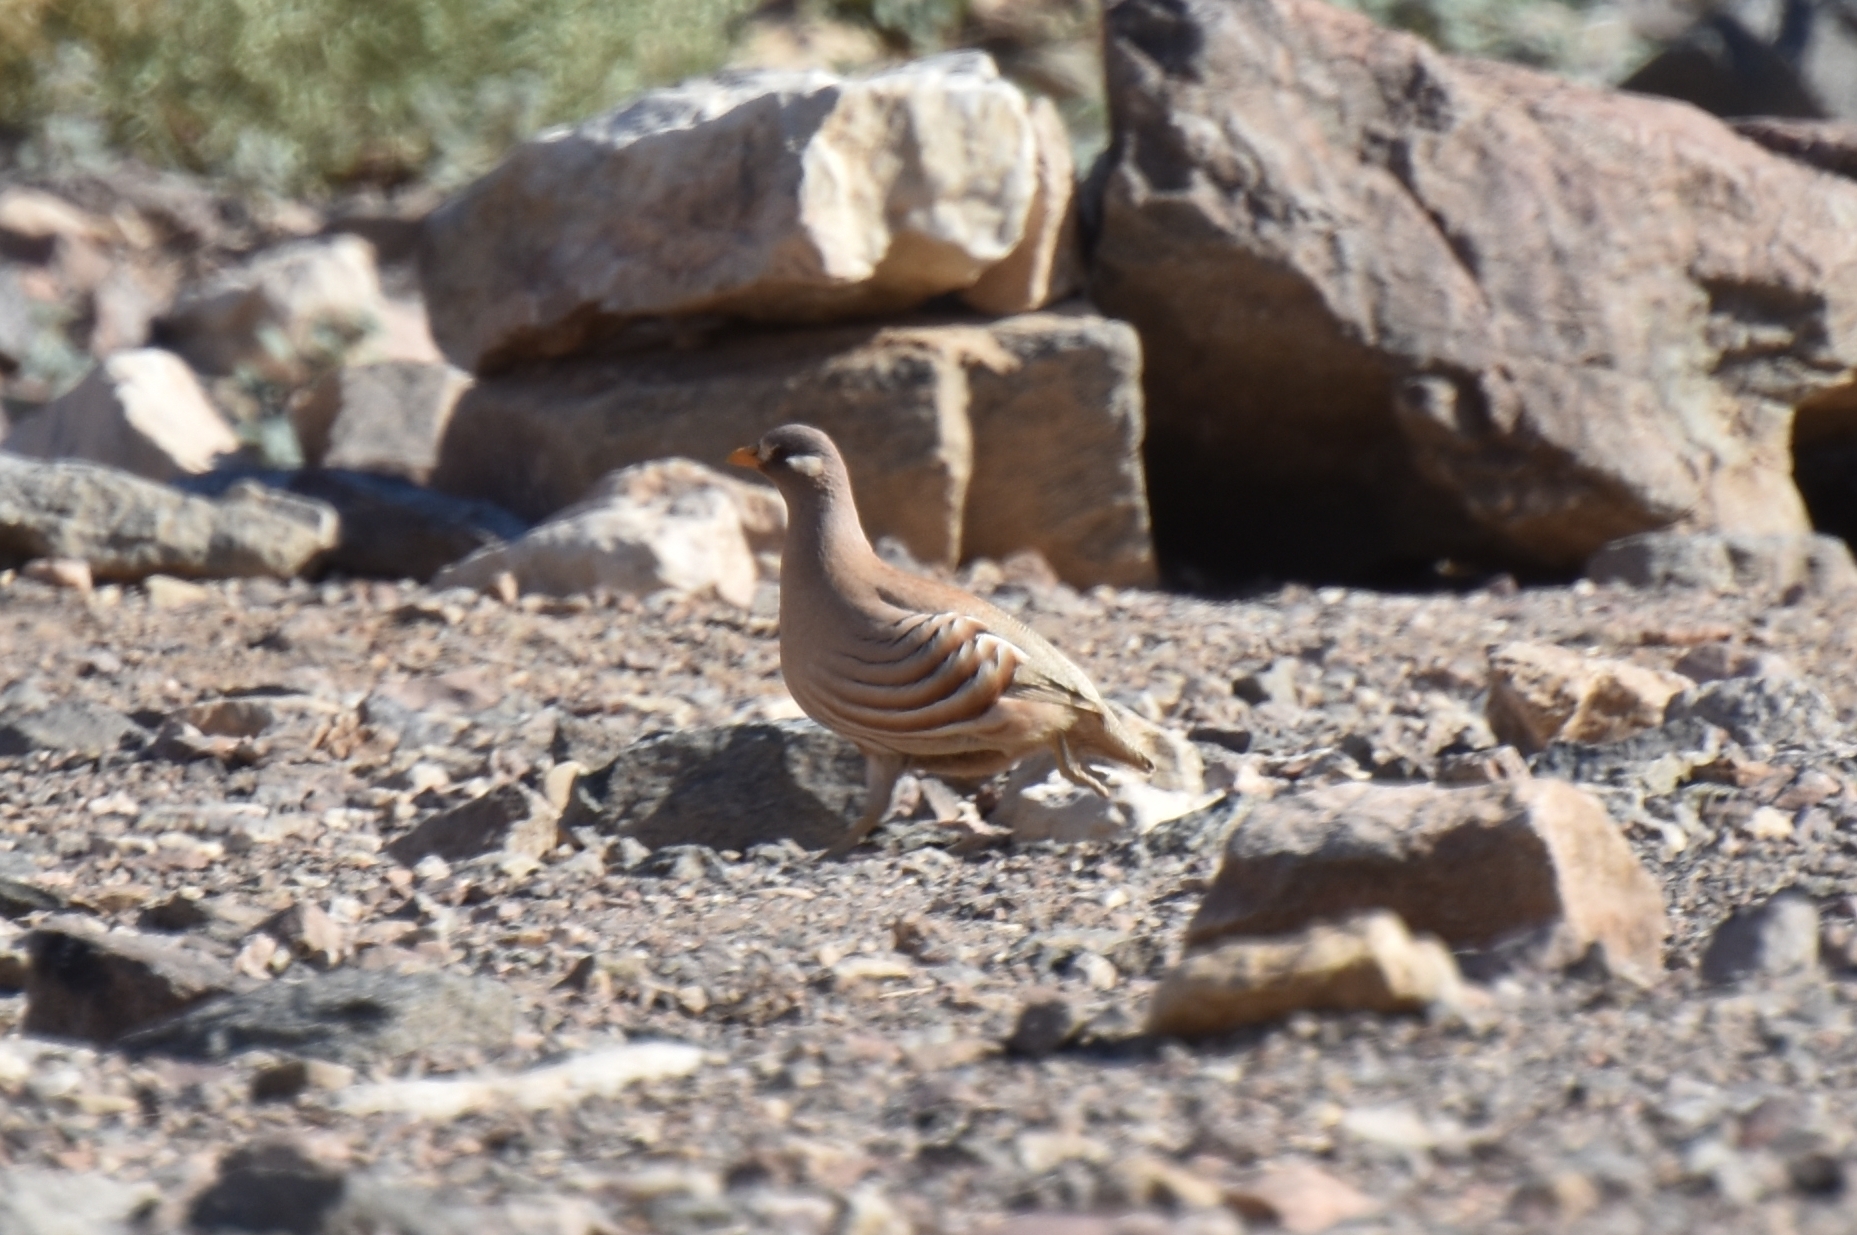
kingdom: Animalia
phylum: Chordata
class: Aves
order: Galliformes
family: Phasianidae
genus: Ammoperdix
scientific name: Ammoperdix heyi
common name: Sand partridge
